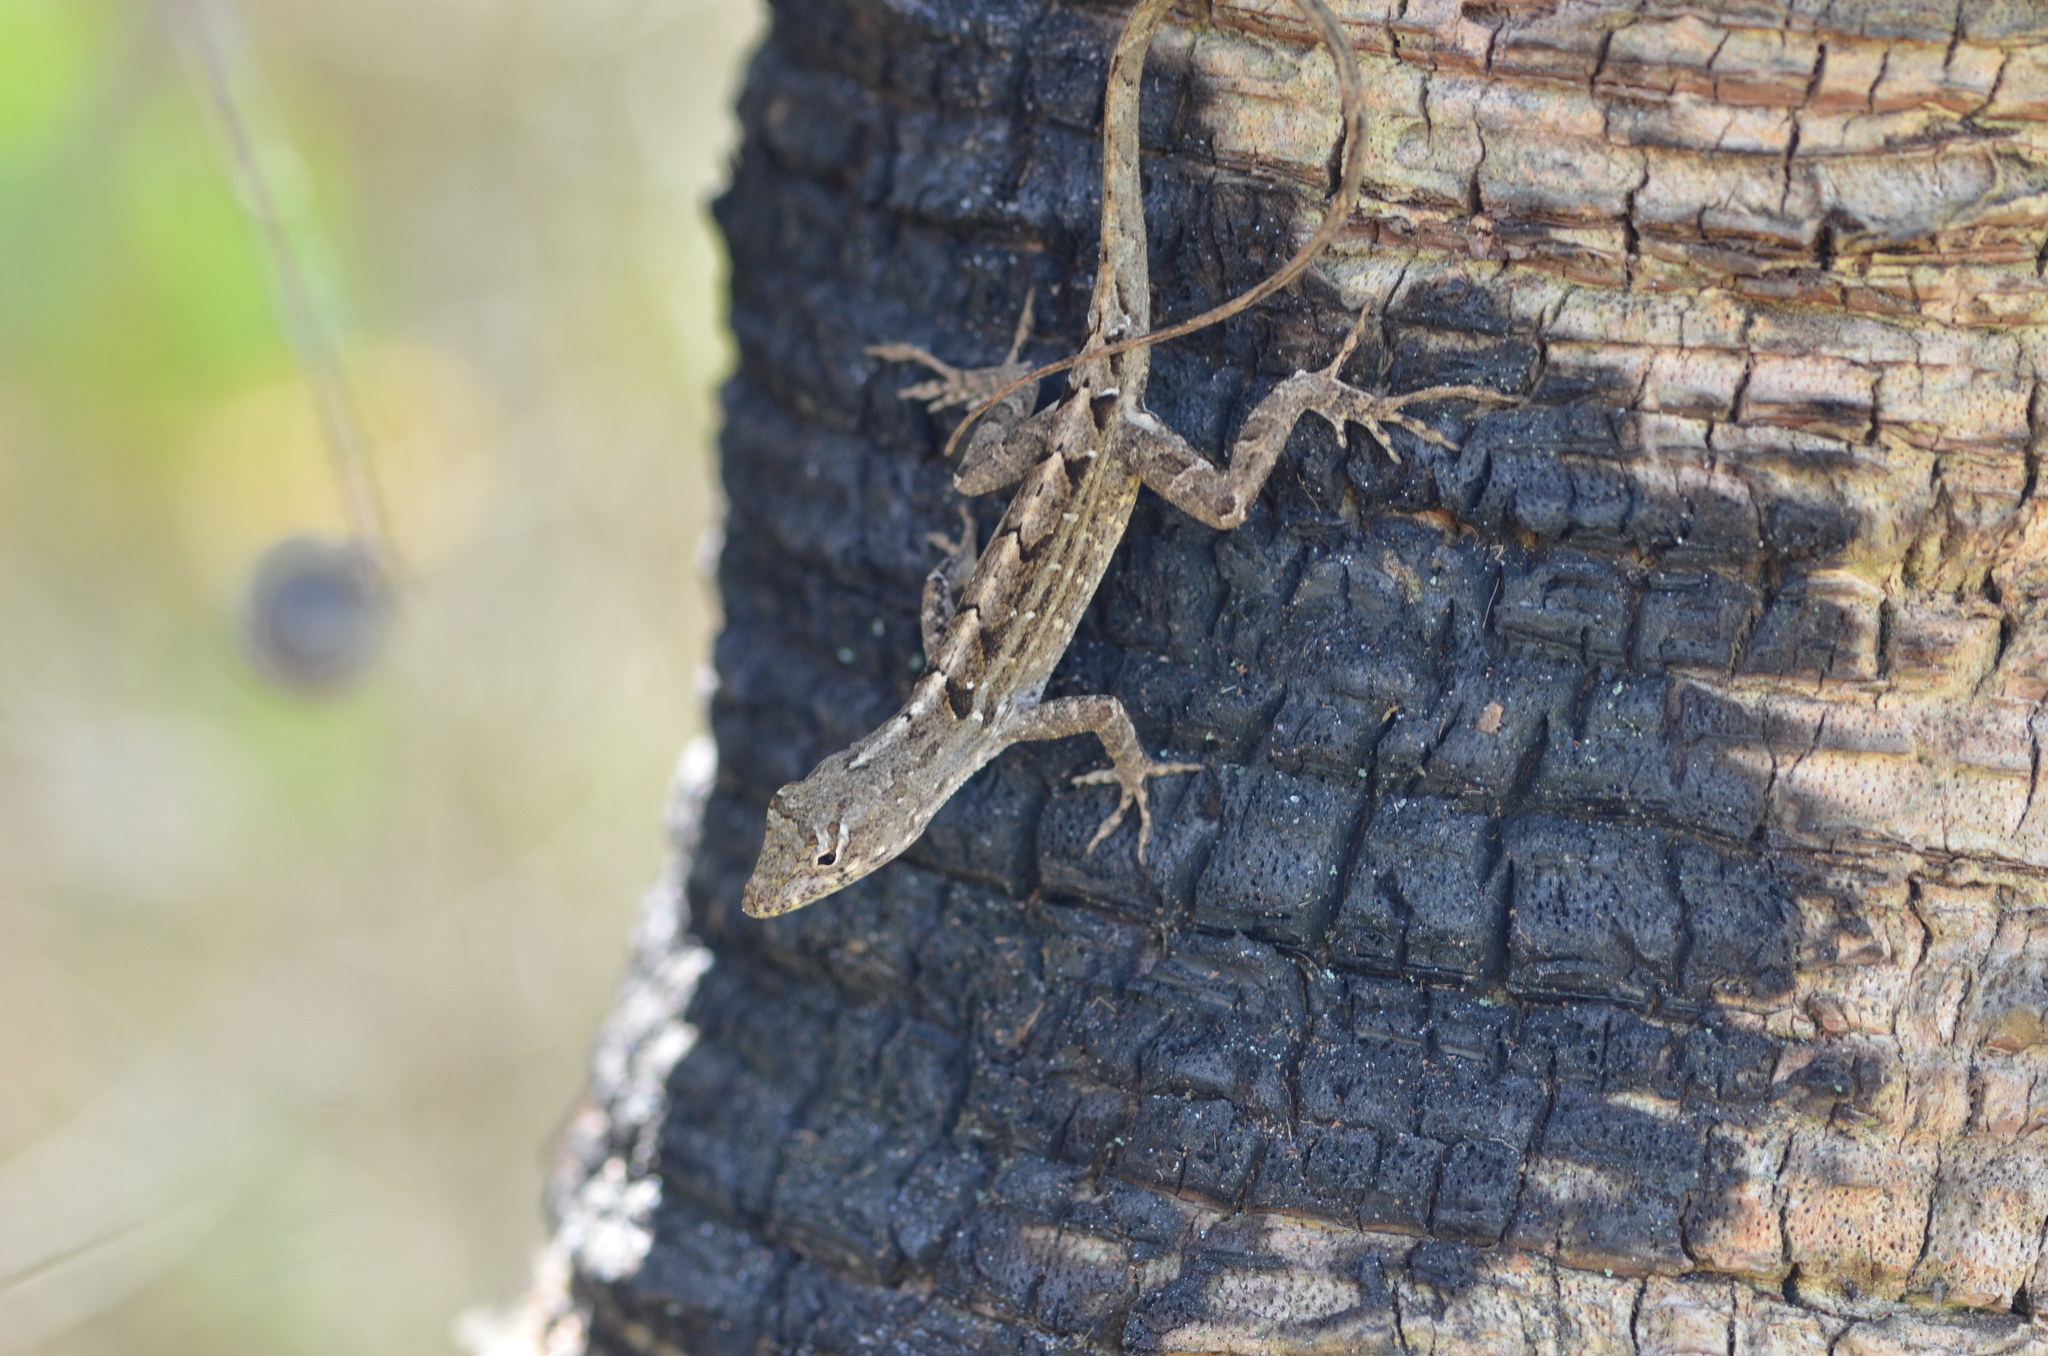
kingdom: Animalia
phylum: Chordata
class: Squamata
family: Dactyloidae
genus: Anolis
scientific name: Anolis sagrei
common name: Brown anole
